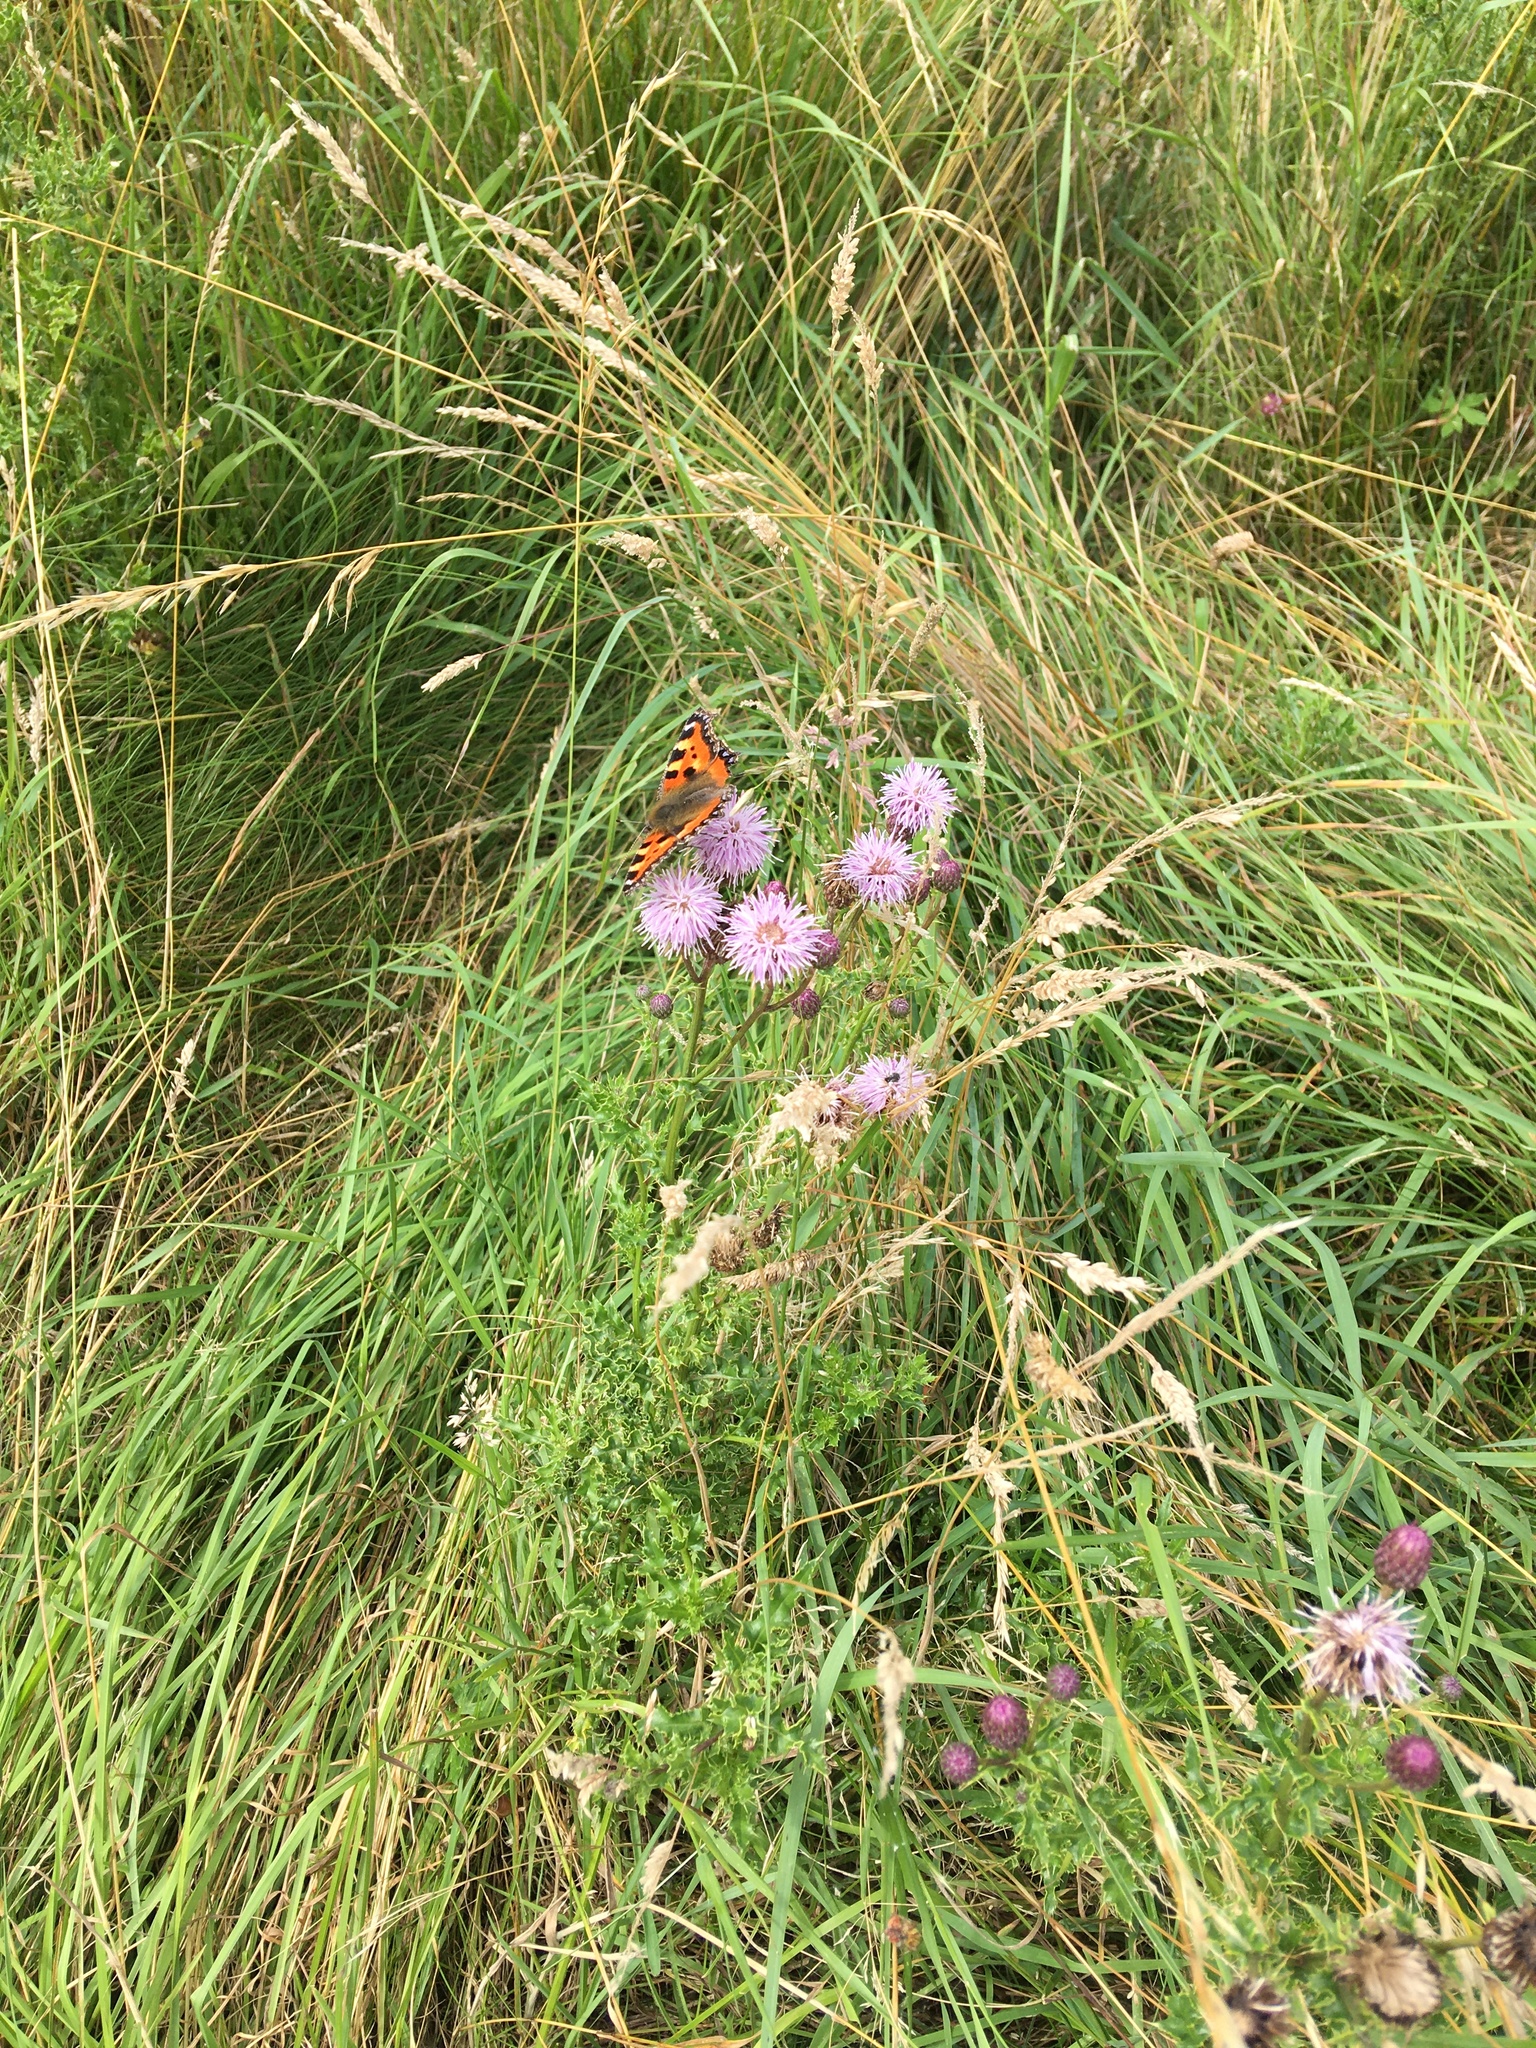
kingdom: Animalia
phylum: Arthropoda
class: Insecta
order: Lepidoptera
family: Nymphalidae
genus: Aglais
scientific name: Aglais io
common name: Peacock
